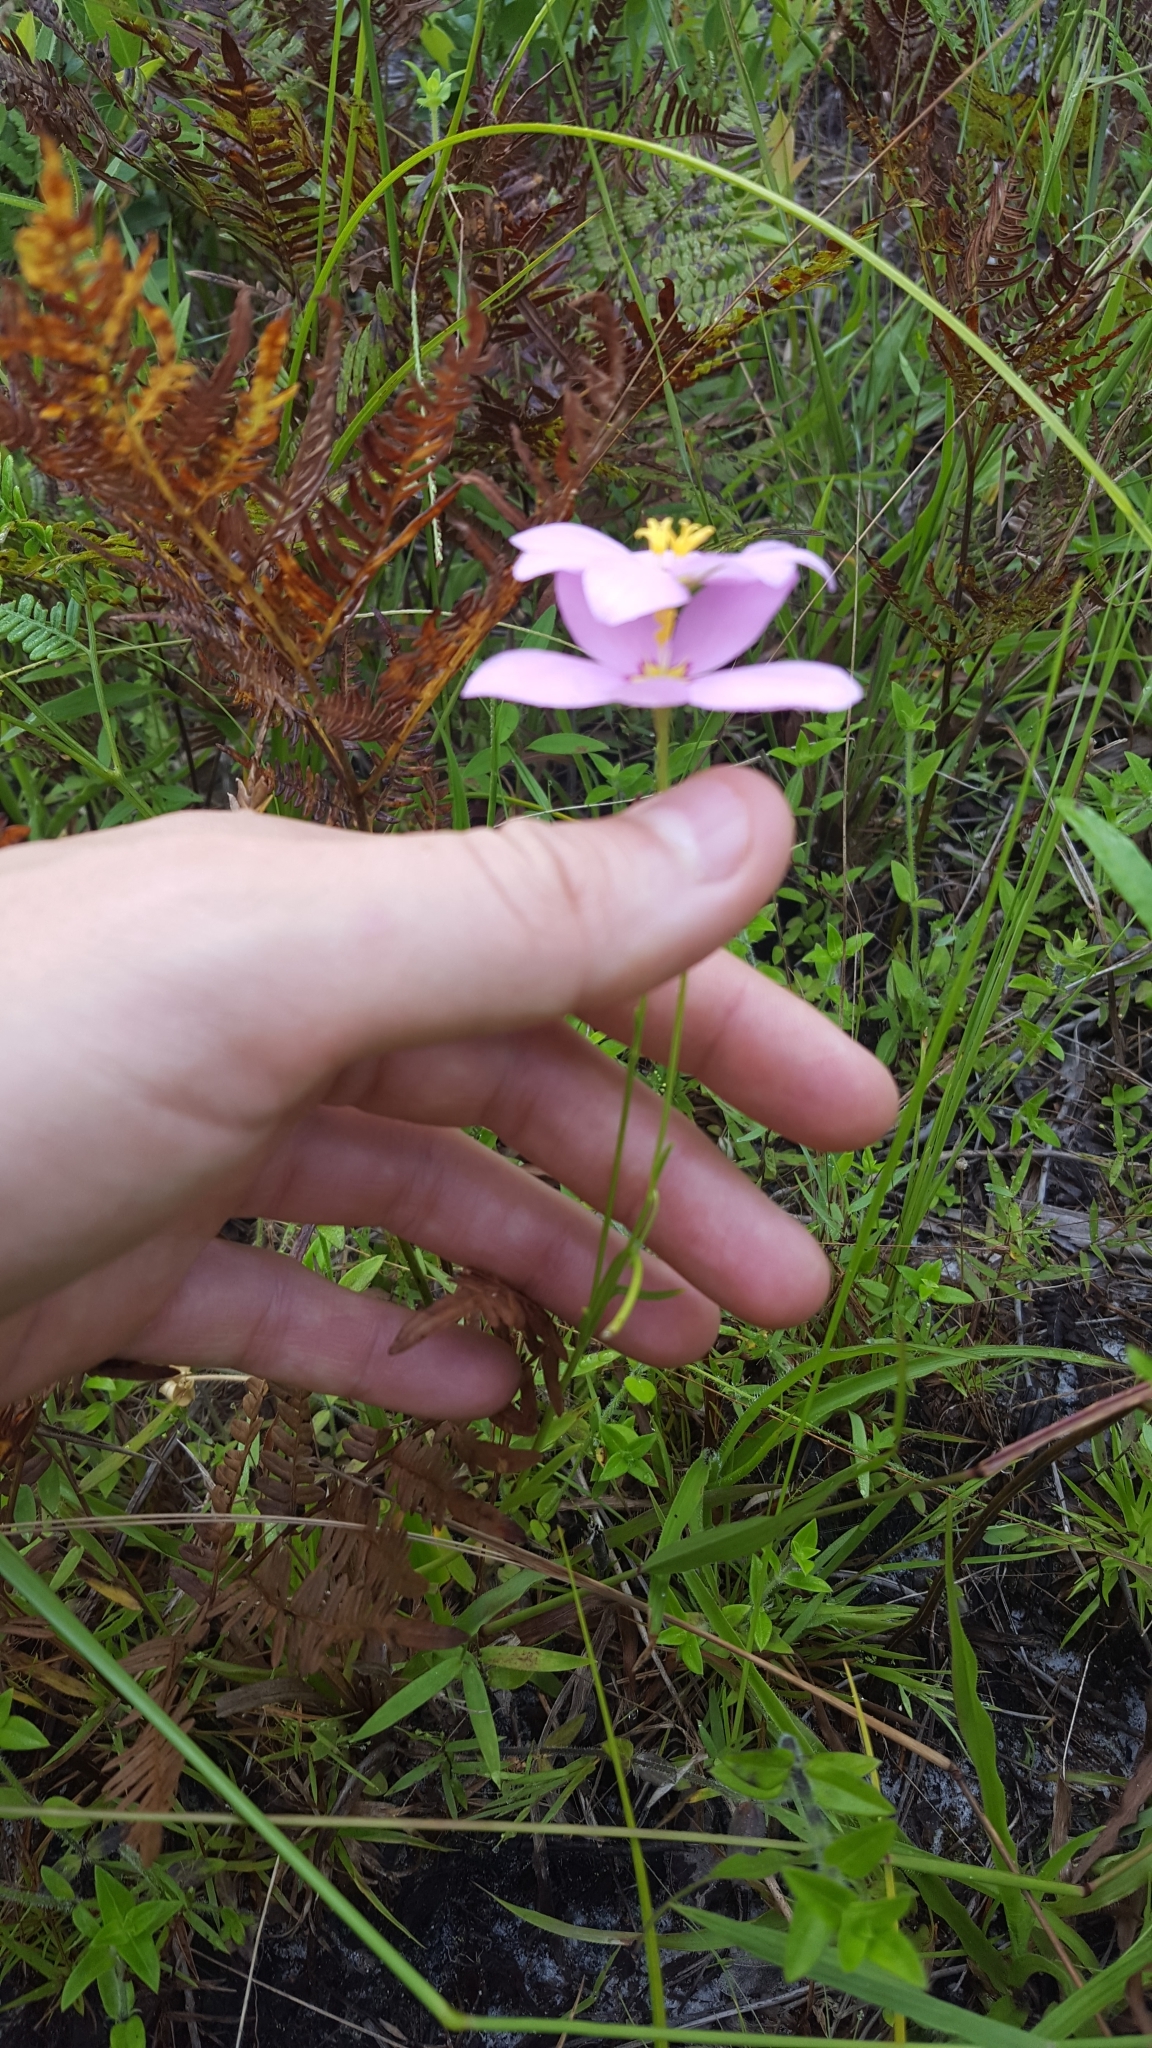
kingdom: Plantae
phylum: Tracheophyta
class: Magnoliopsida
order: Gentianales
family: Gentianaceae
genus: Sabatia
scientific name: Sabatia grandiflora
